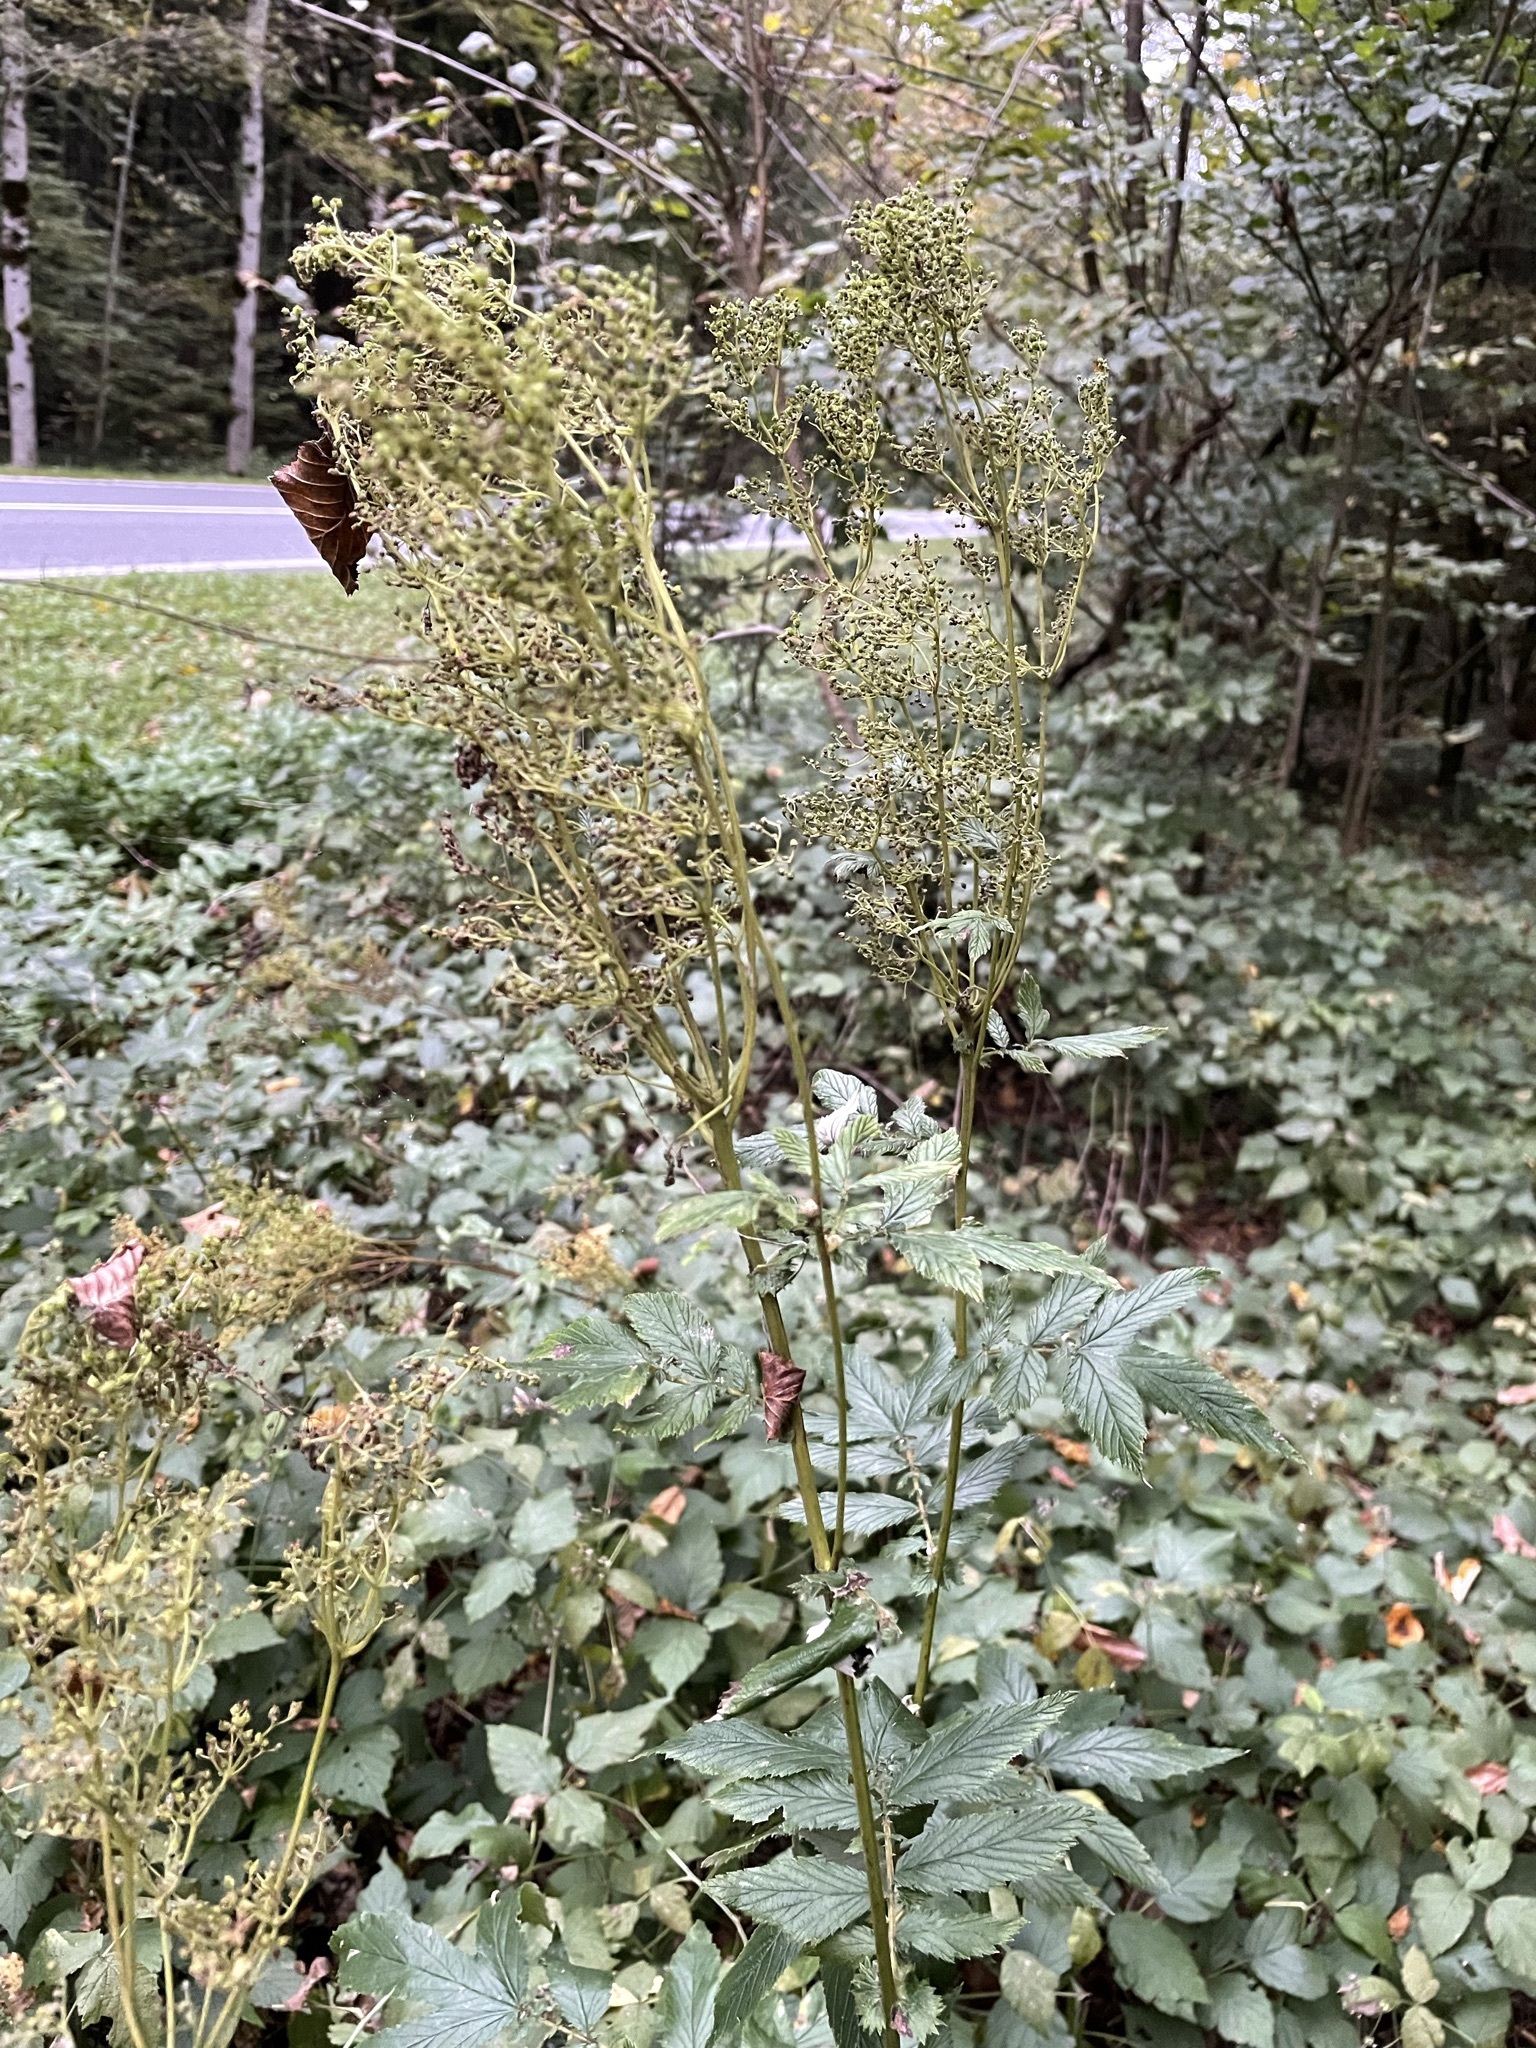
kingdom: Plantae
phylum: Tracheophyta
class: Magnoliopsida
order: Rosales
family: Rosaceae
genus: Filipendula
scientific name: Filipendula ulmaria
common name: Meadowsweet
